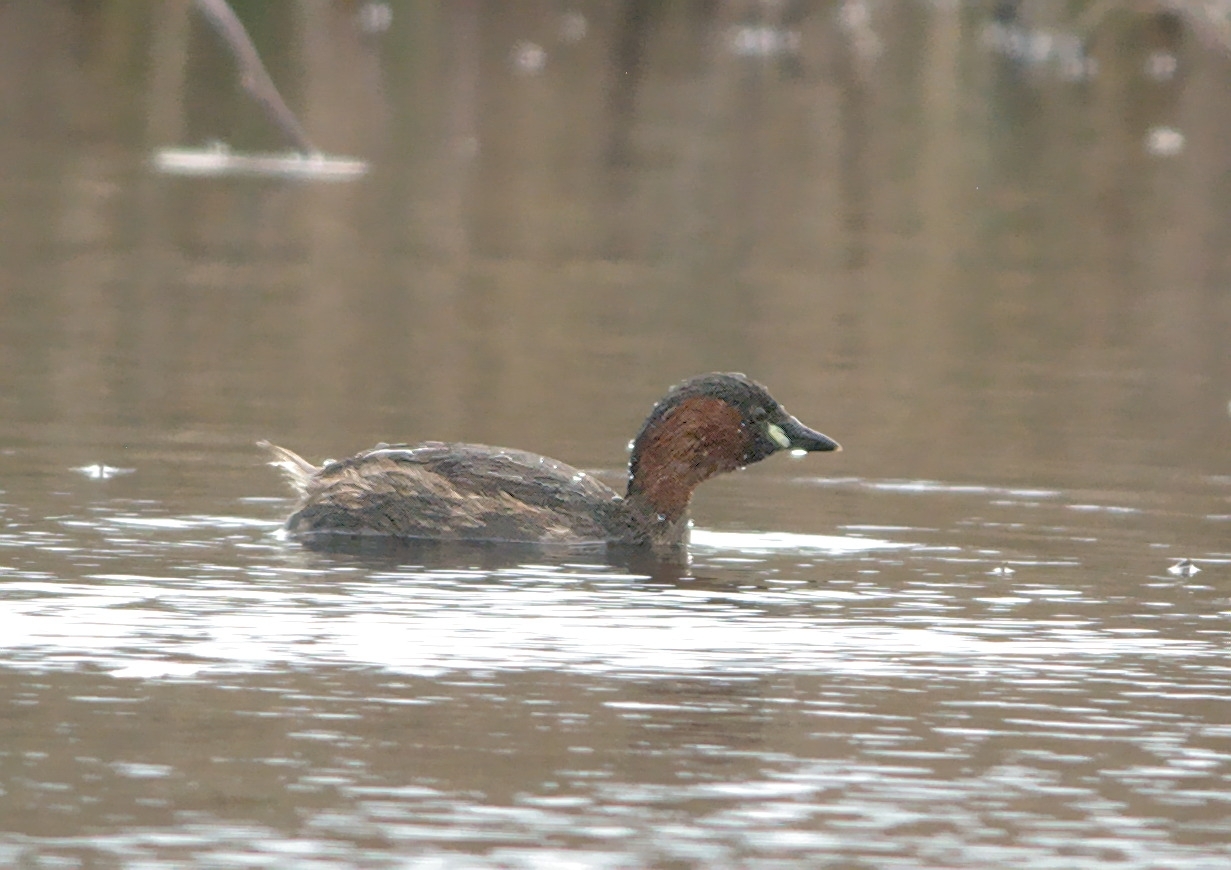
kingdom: Animalia
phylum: Chordata
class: Aves
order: Podicipediformes
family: Podicipedidae
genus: Tachybaptus
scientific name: Tachybaptus ruficollis
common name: Little grebe
